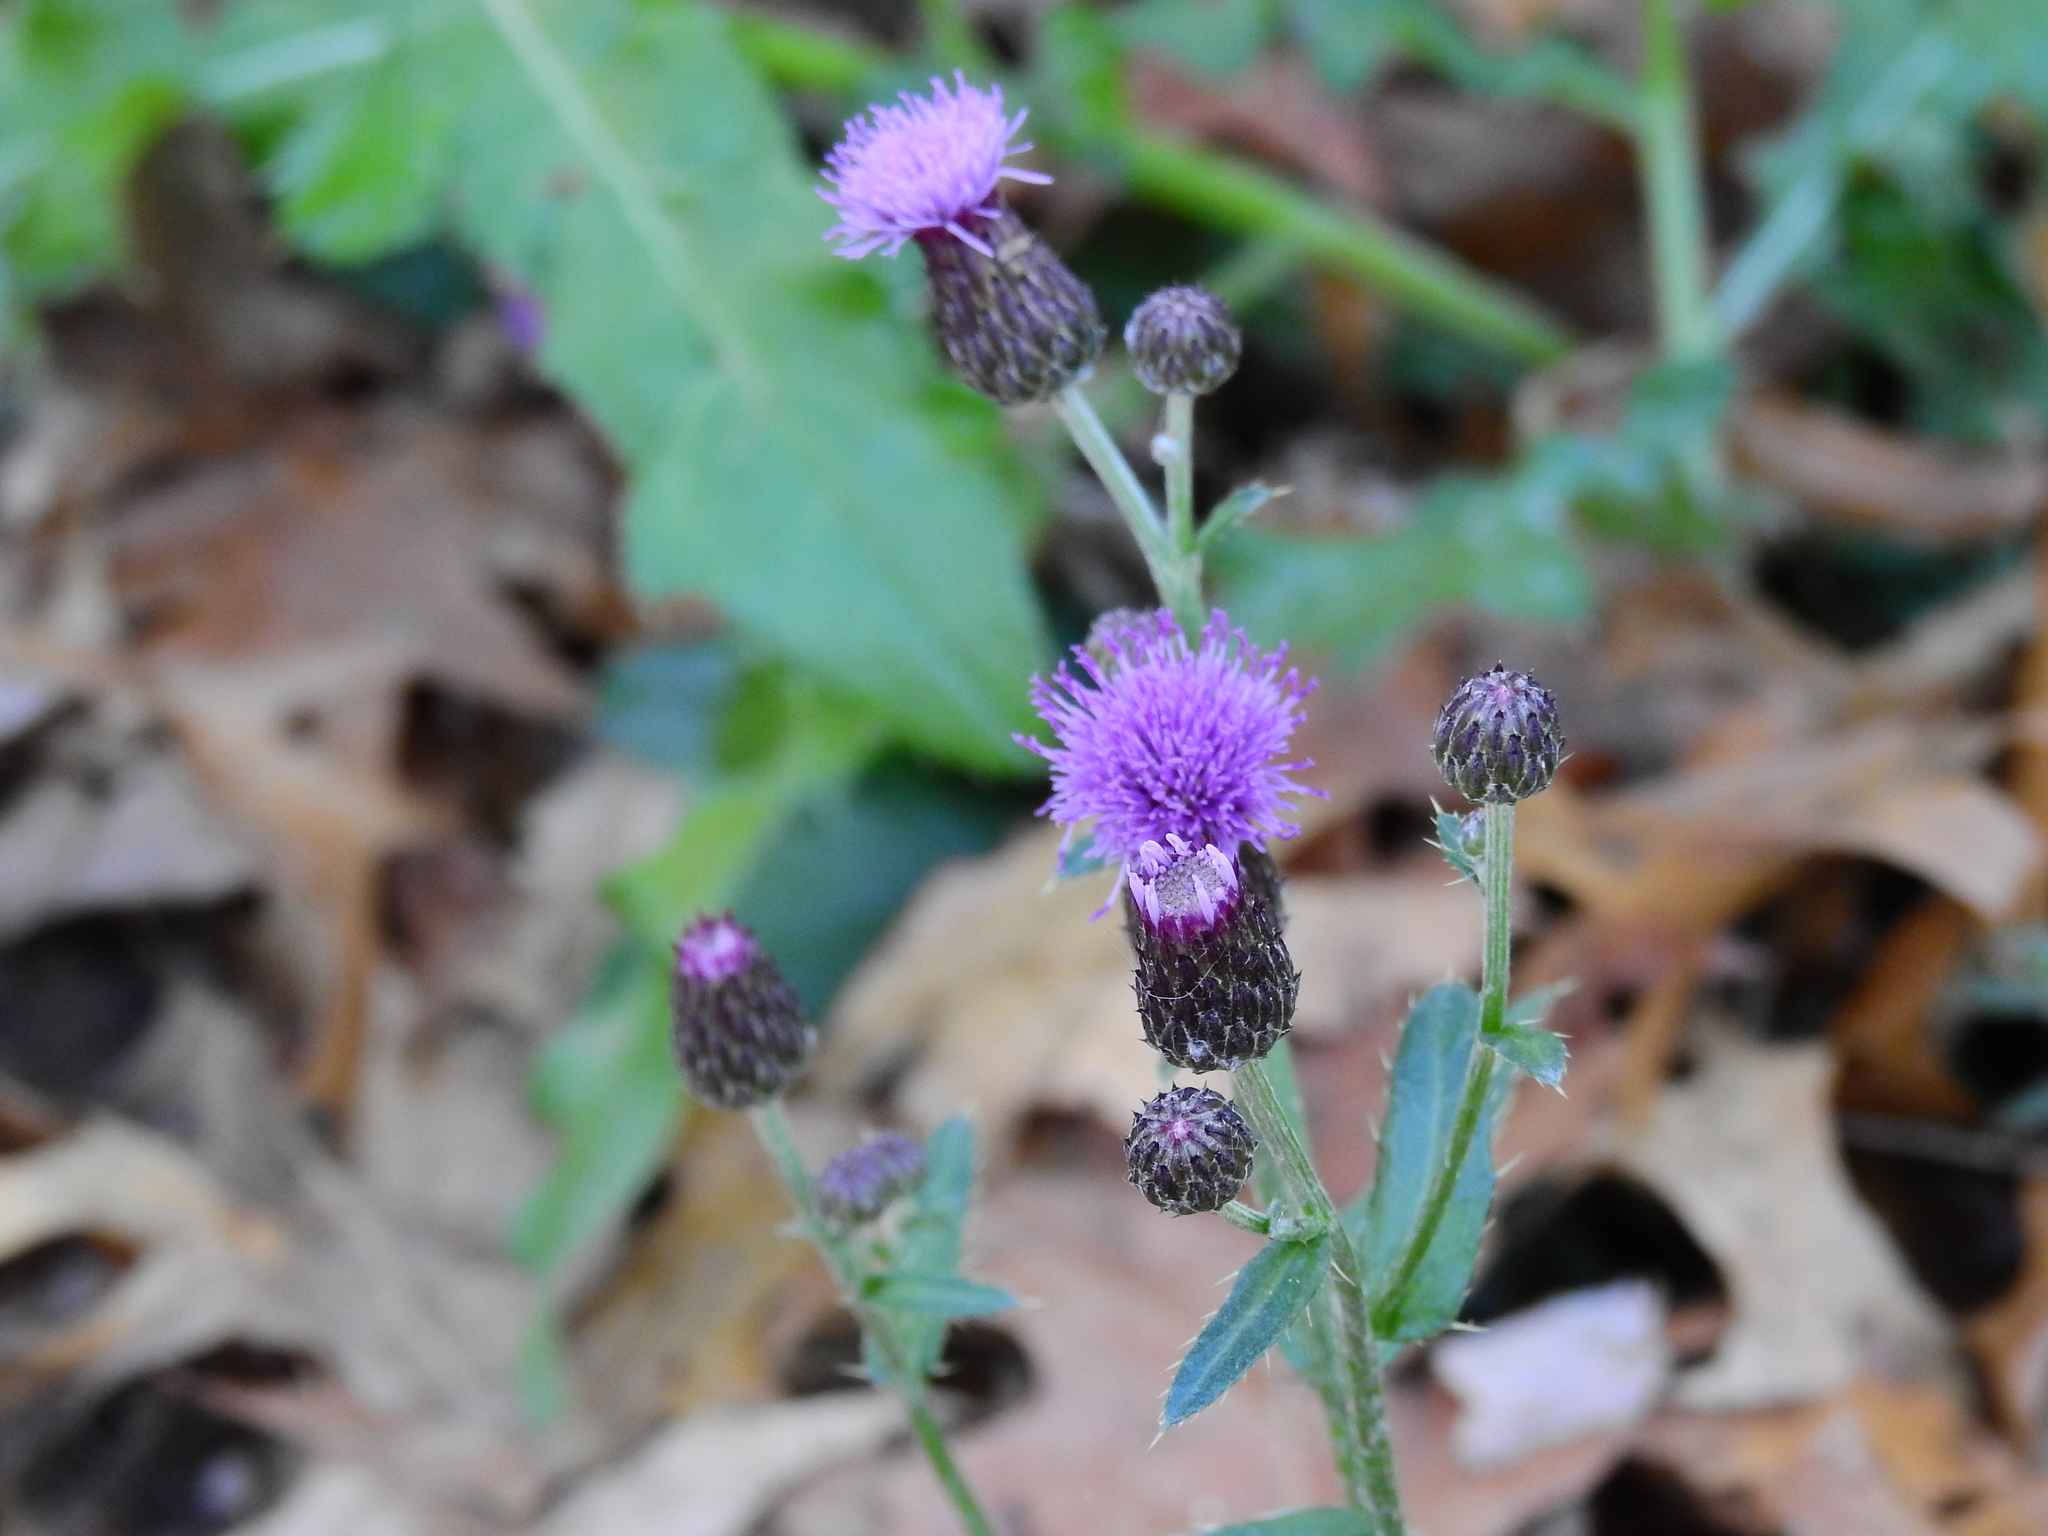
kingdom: Plantae
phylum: Tracheophyta
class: Magnoliopsida
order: Asterales
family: Asteraceae
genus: Cirsium
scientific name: Cirsium arvense
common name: Creeping thistle
